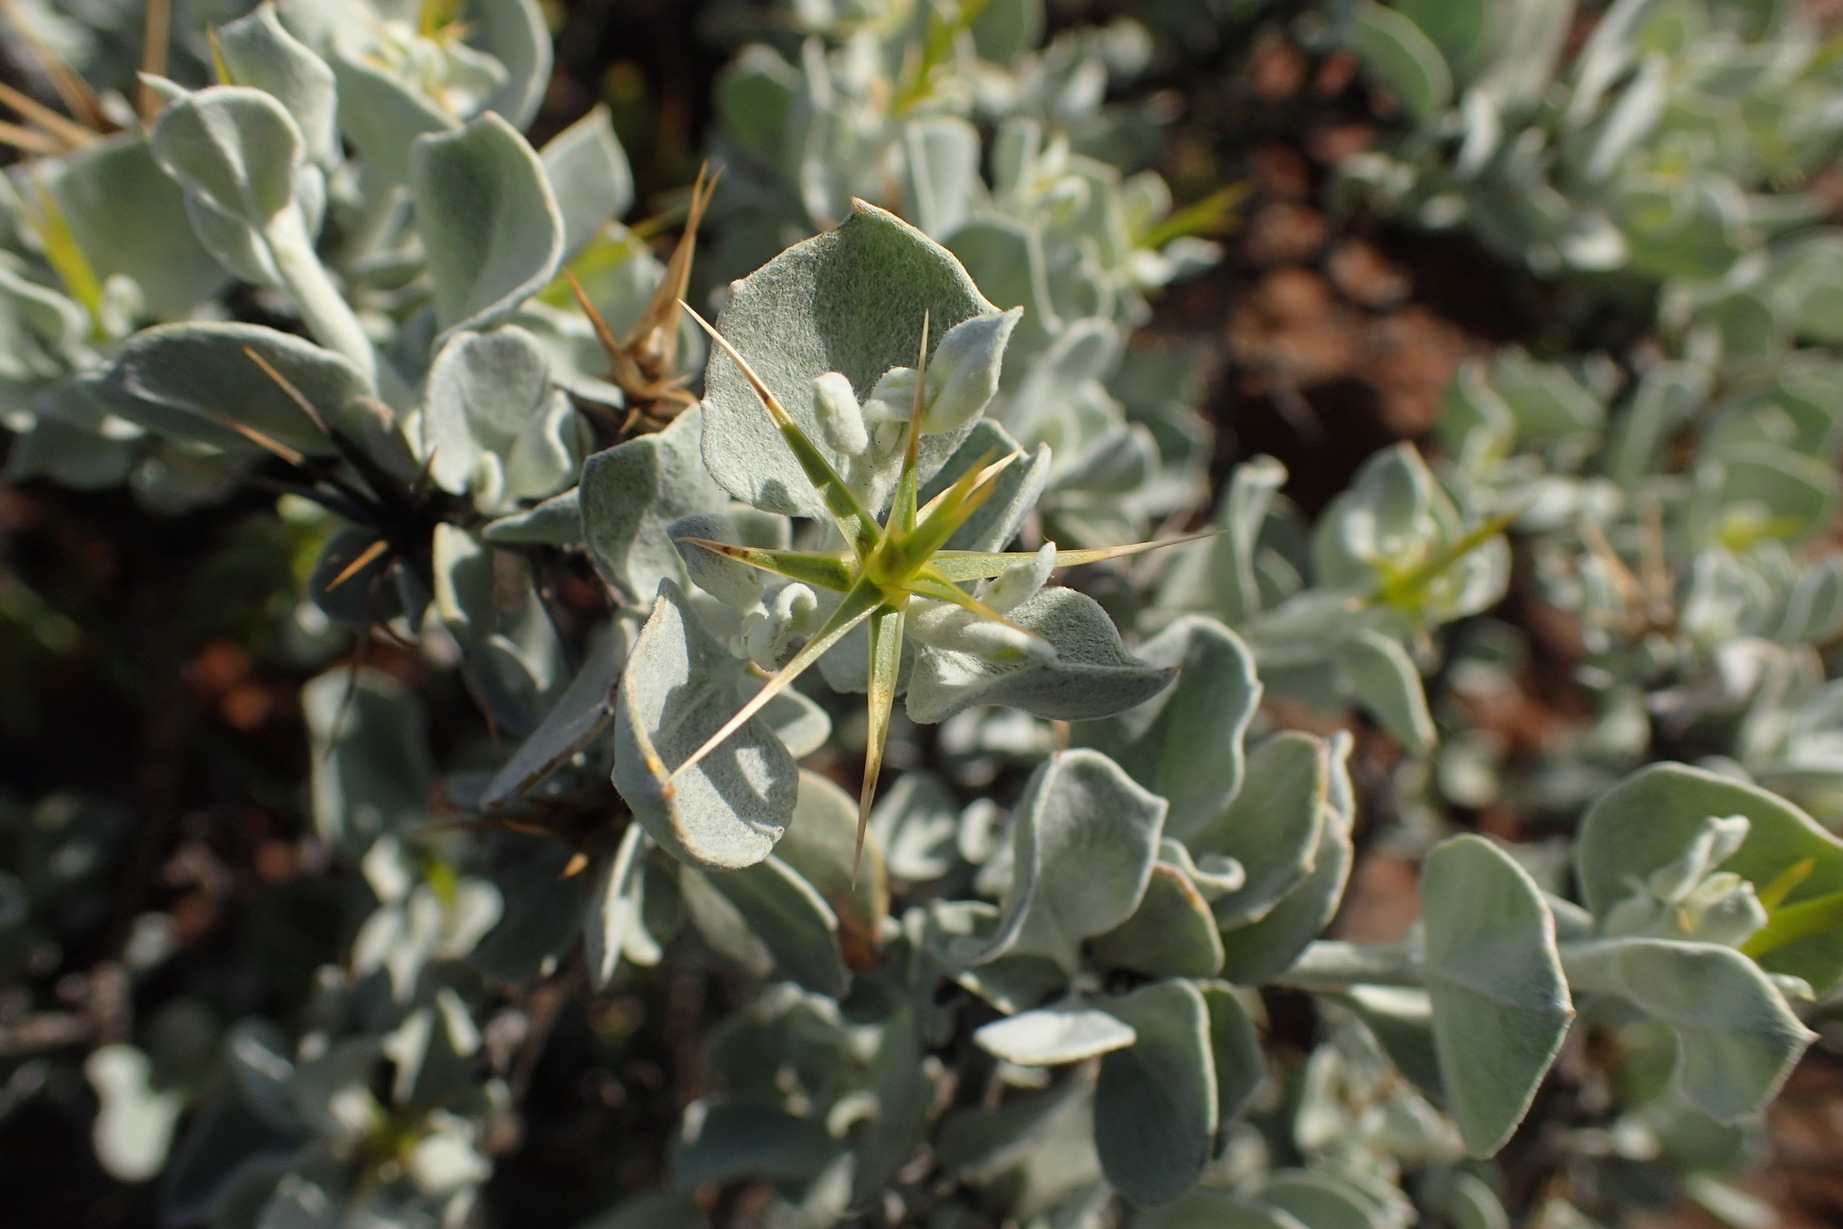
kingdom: Plantae
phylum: Tracheophyta
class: Magnoliopsida
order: Asterales
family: Asteraceae
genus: Macledium
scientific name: Macledium spinosum
